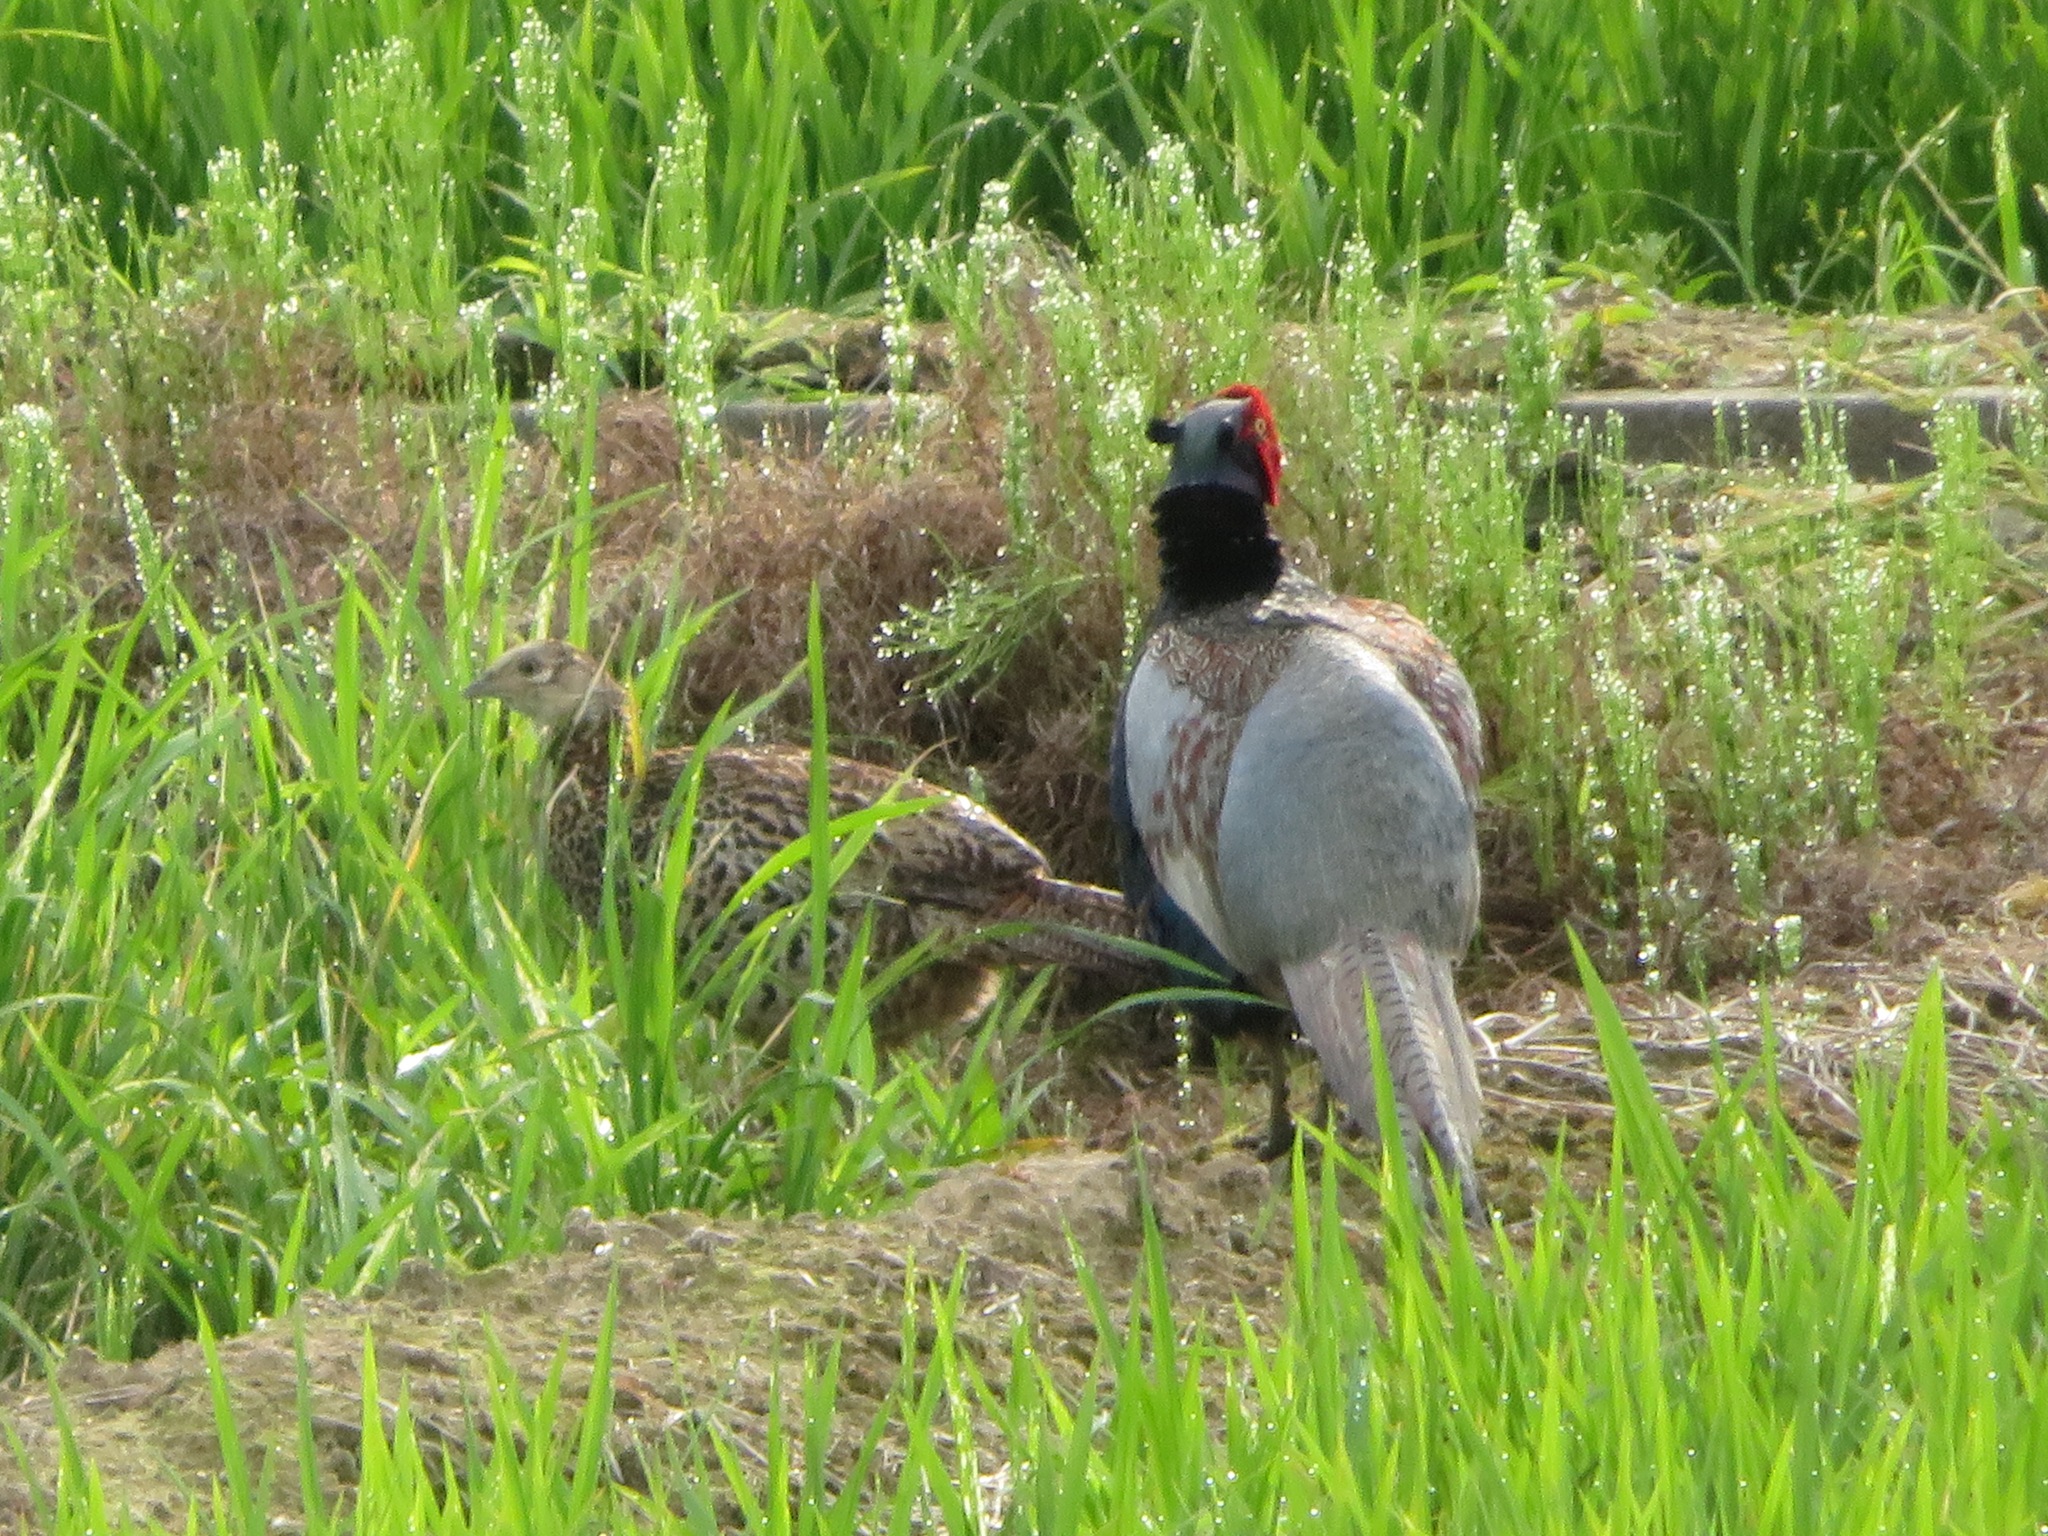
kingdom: Animalia
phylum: Chordata
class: Aves
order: Galliformes
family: Phasianidae
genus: Phasianus
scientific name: Phasianus versicolor
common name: Green pheasant
